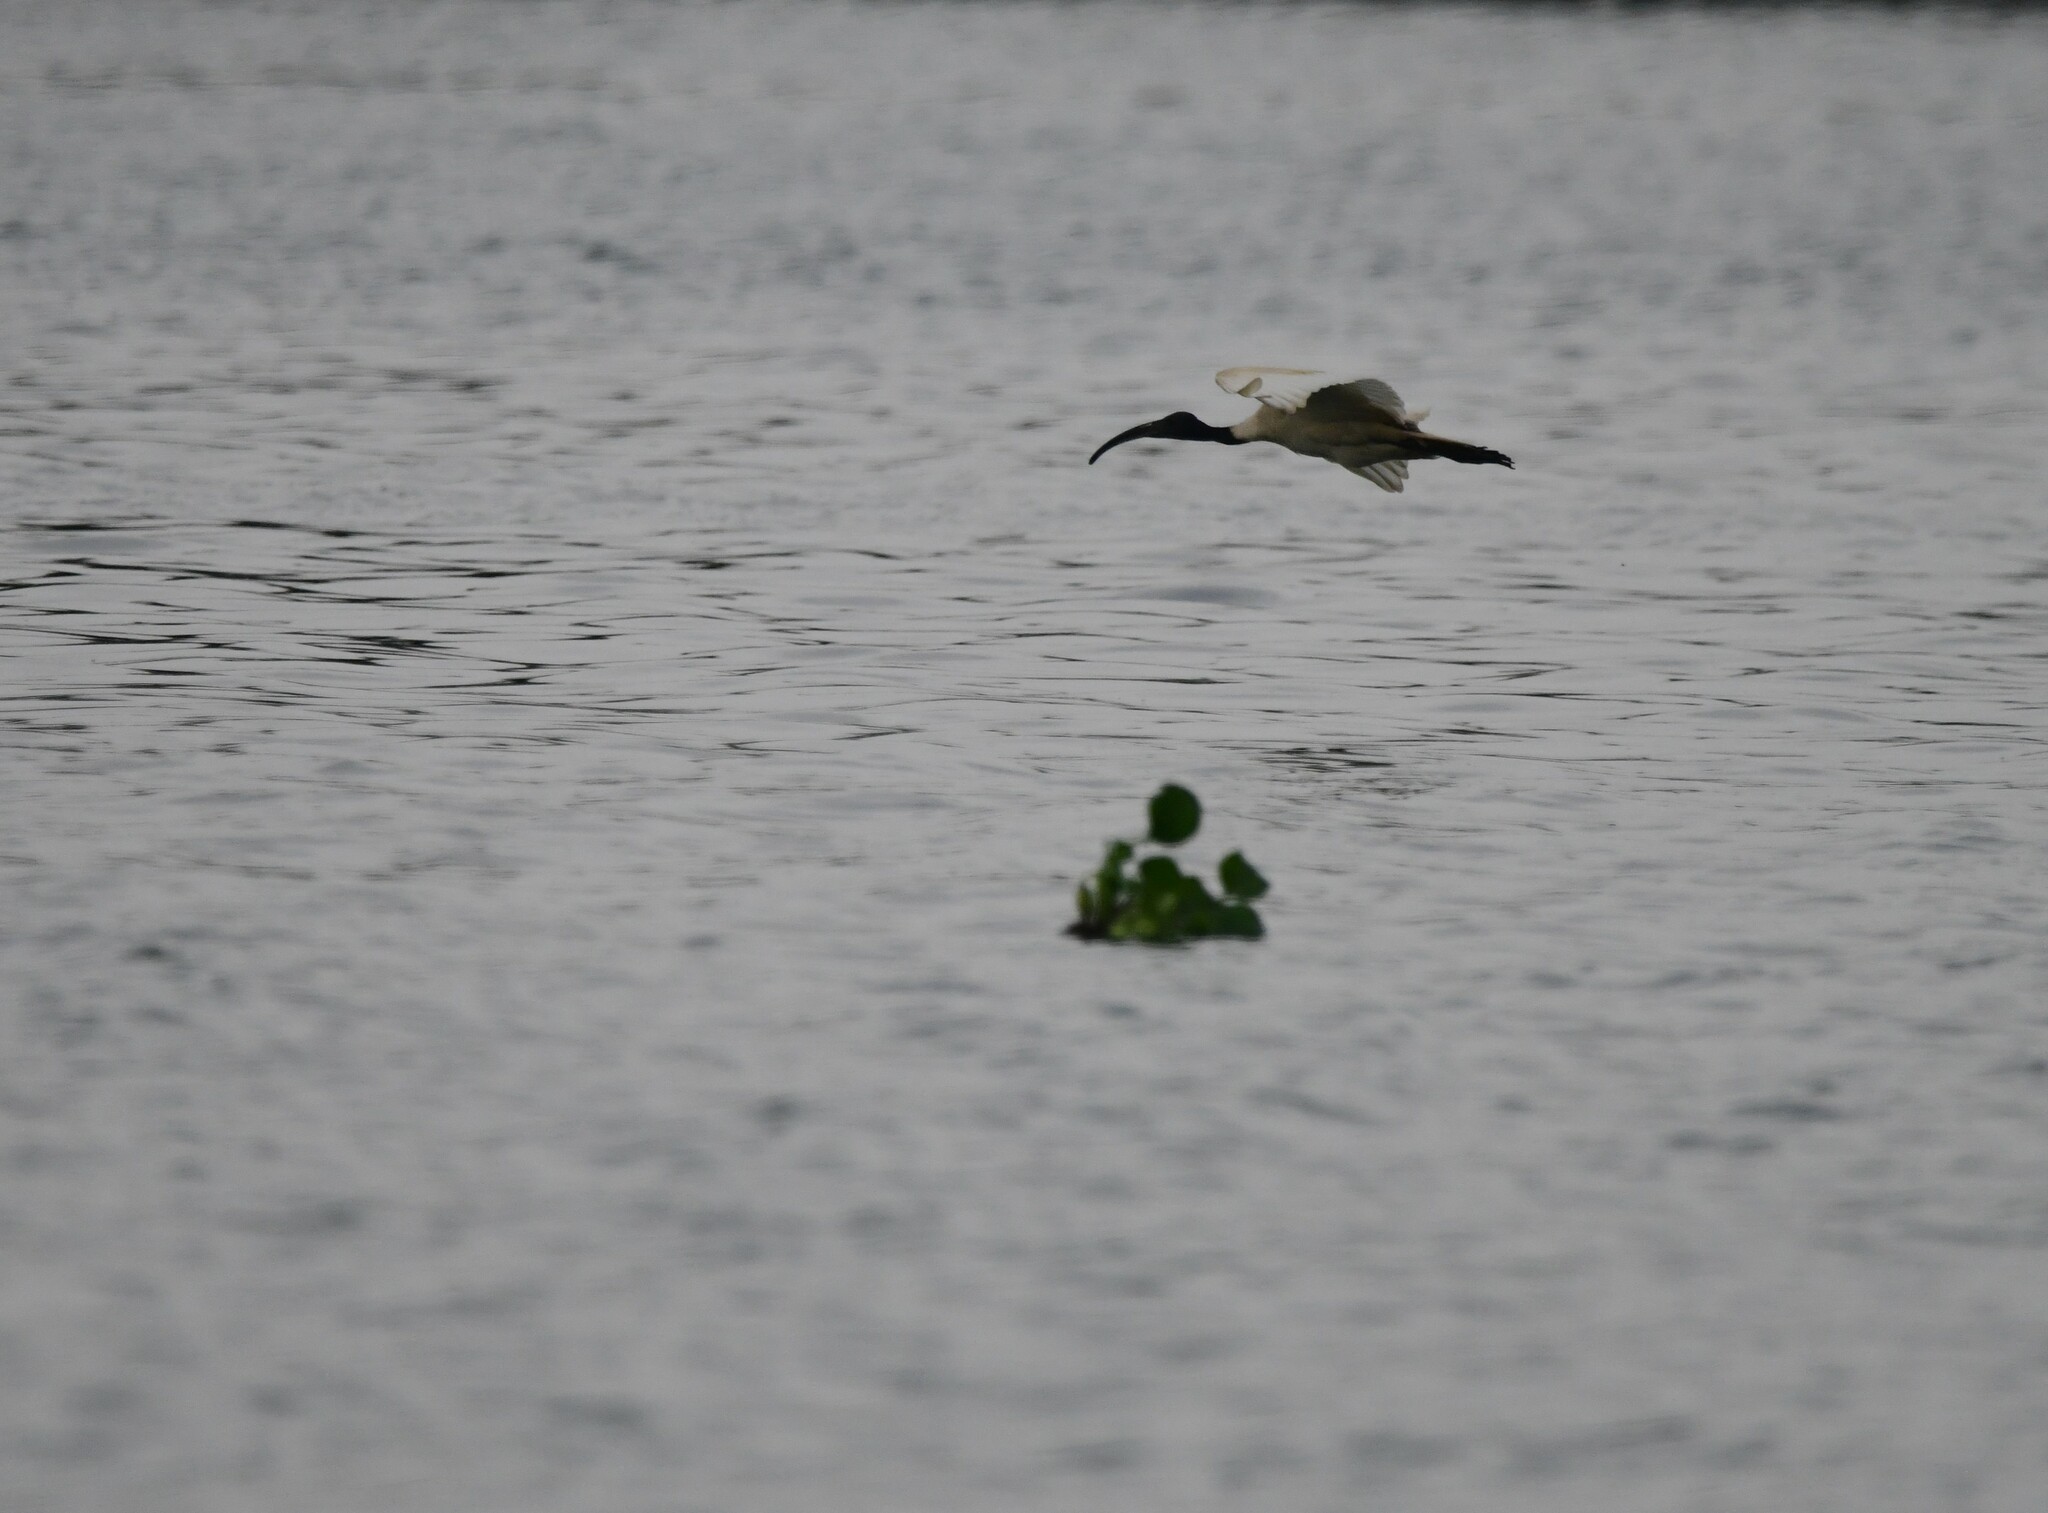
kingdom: Animalia
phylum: Chordata
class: Aves
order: Pelecaniformes
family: Threskiornithidae
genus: Threskiornis
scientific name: Threskiornis melanocephalus
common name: Black-headed ibis
